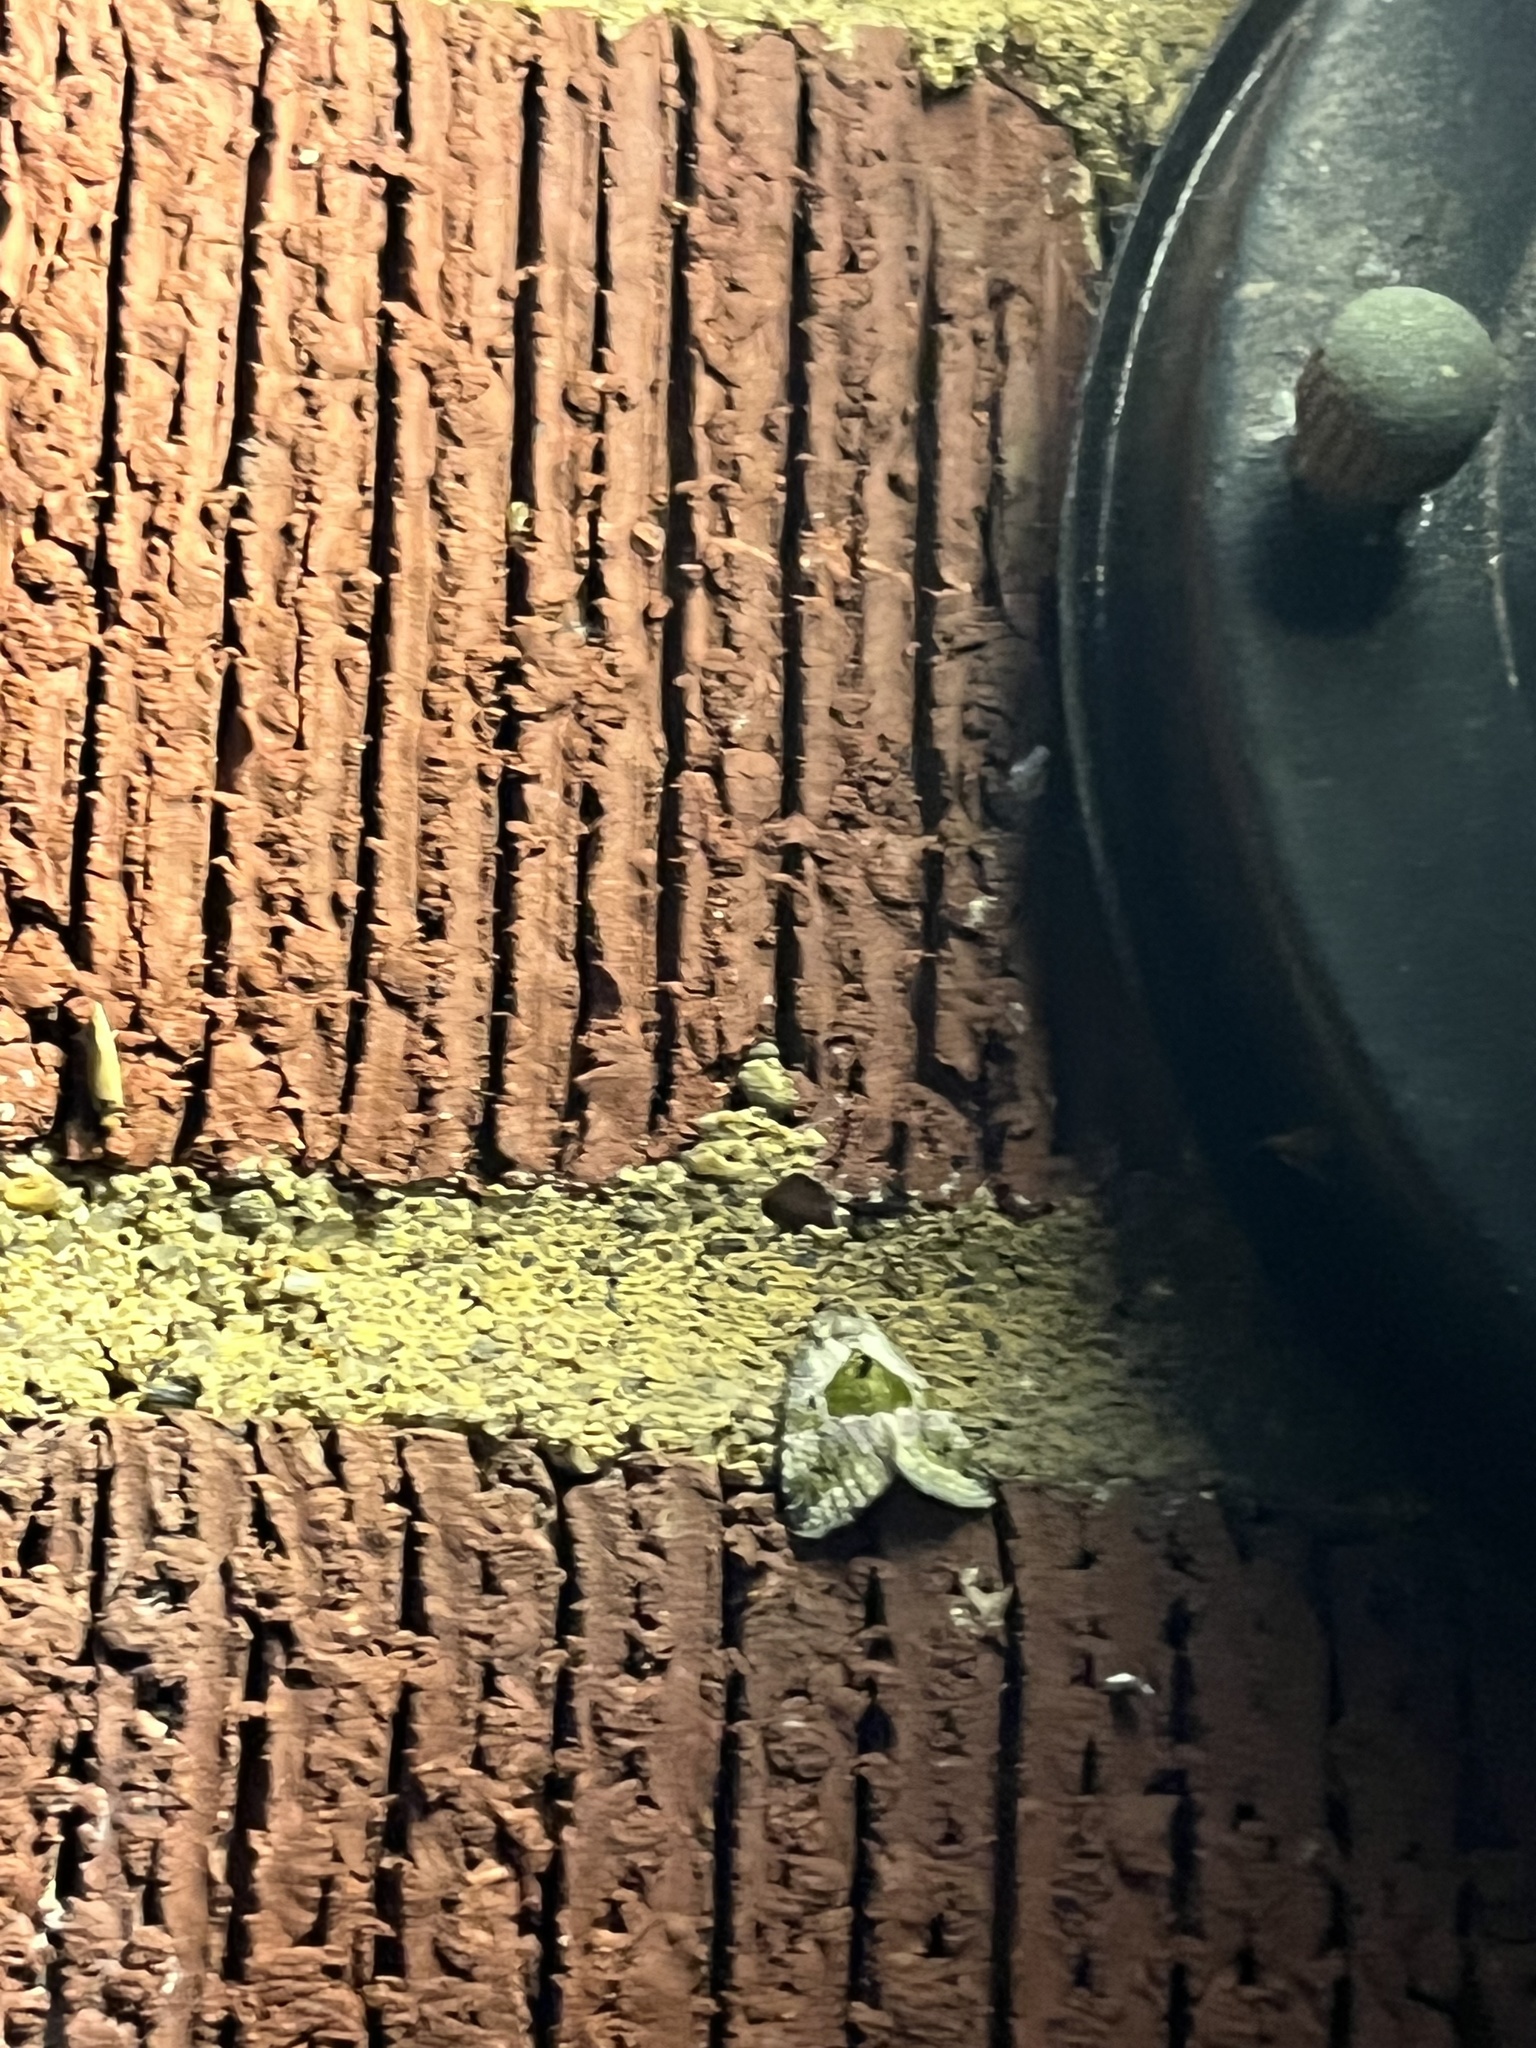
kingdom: Animalia
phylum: Arthropoda
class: Insecta
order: Lepidoptera
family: Noctuidae
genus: Maliattha
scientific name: Maliattha synochitis
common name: Black-dotted glyph
